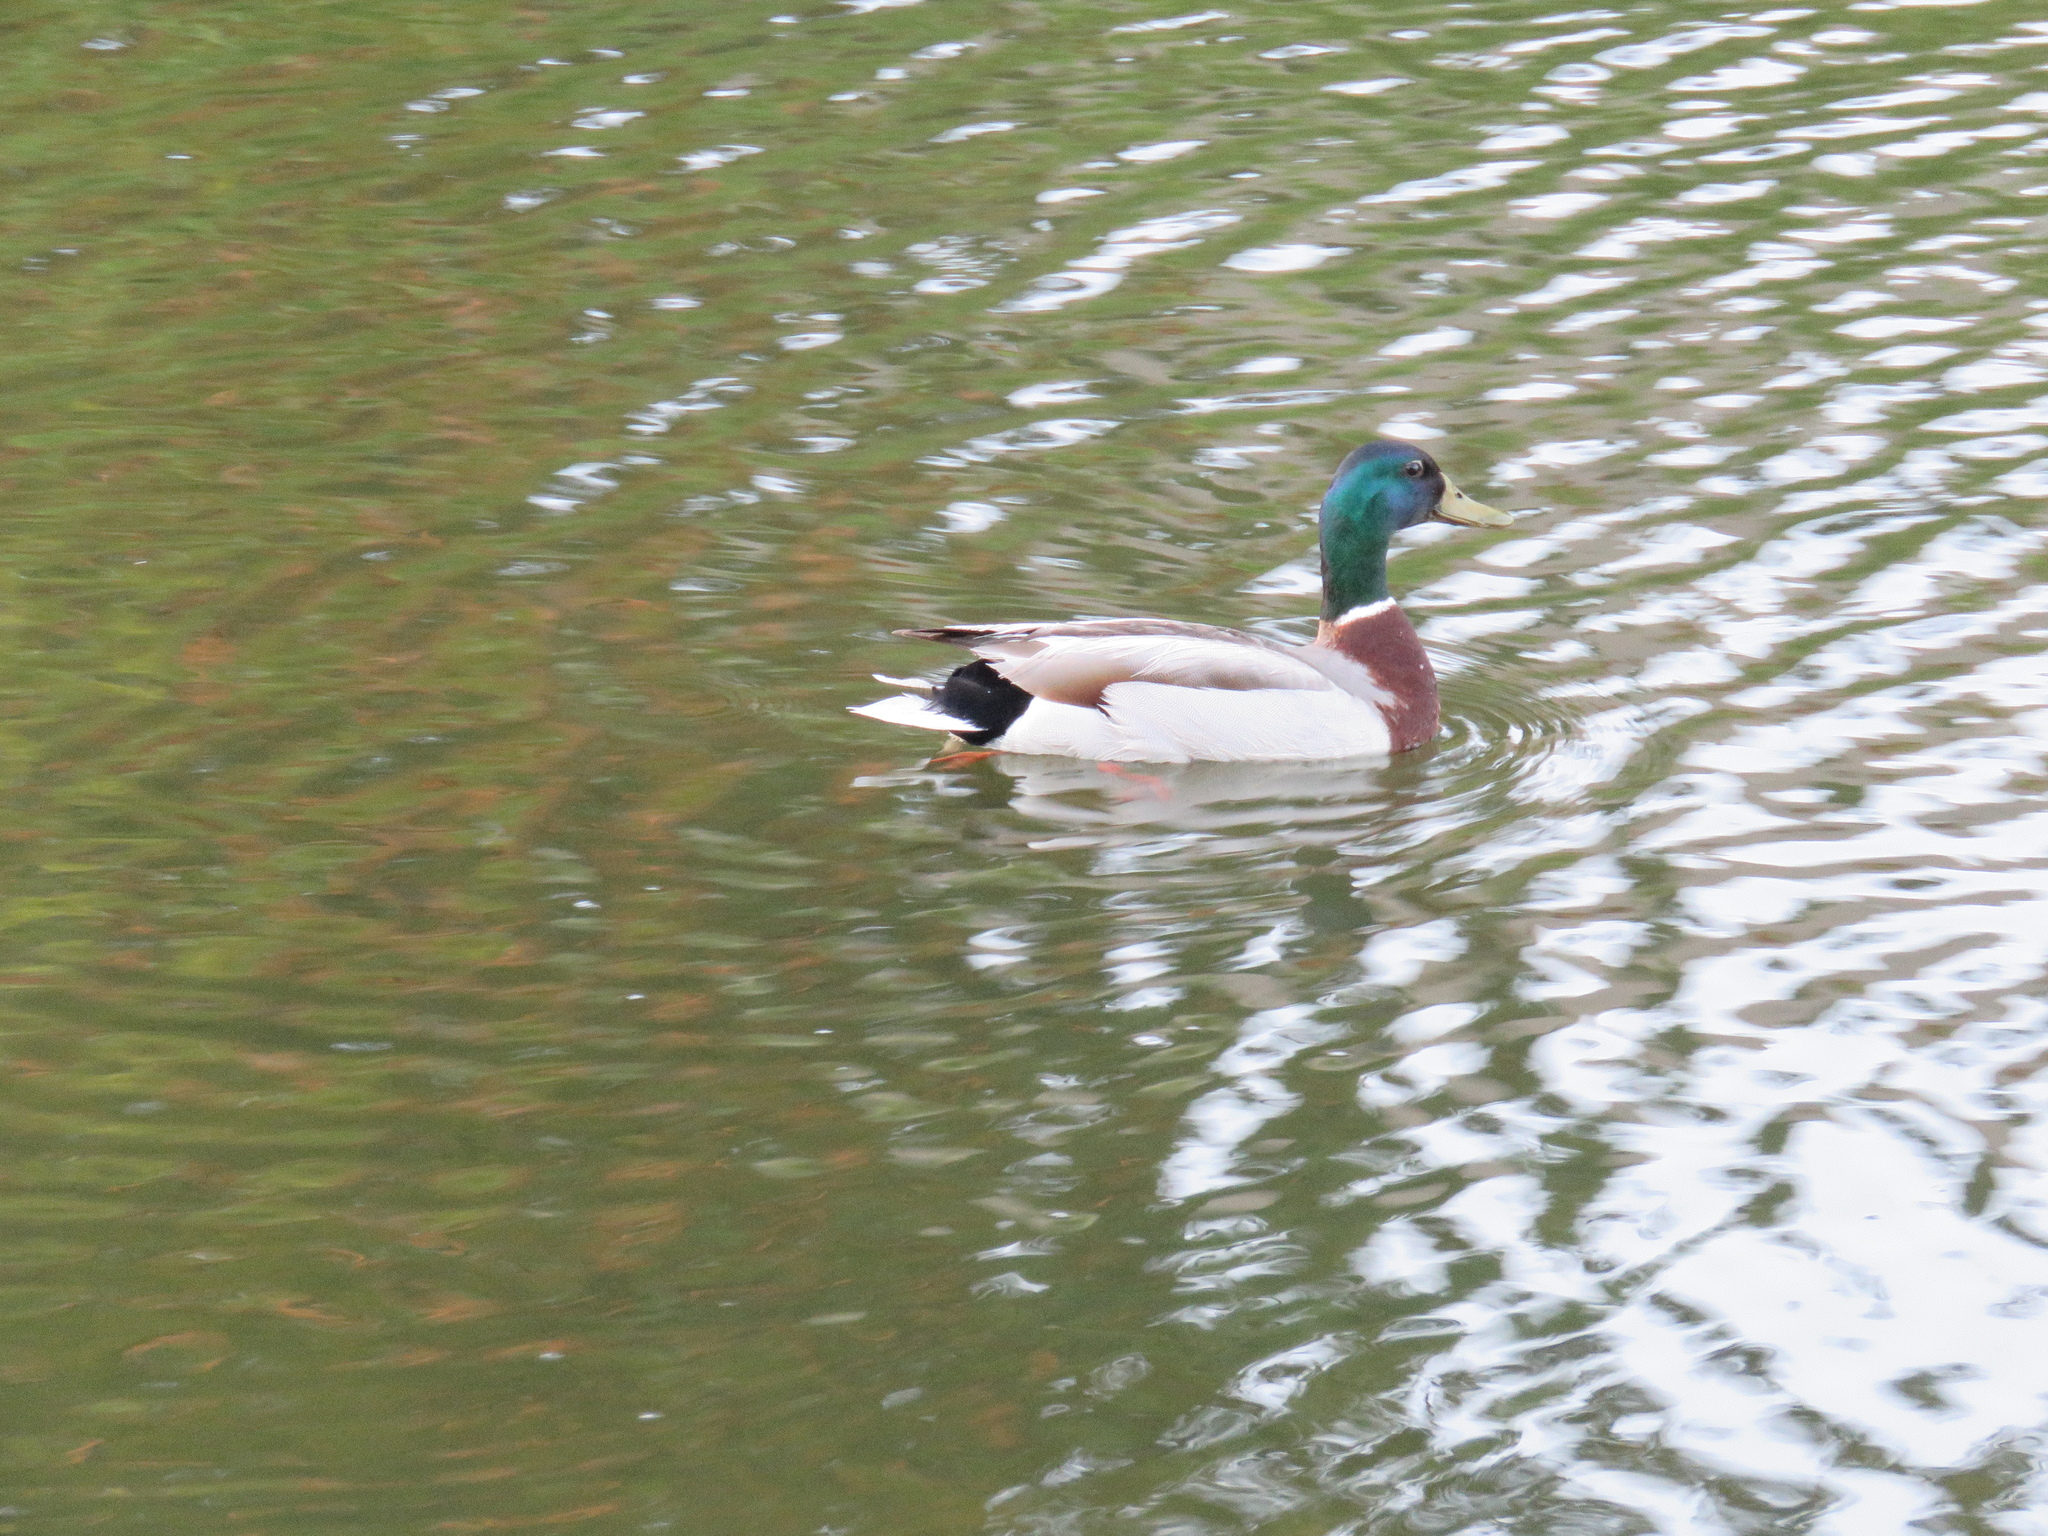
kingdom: Animalia
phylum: Chordata
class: Aves
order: Anseriformes
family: Anatidae
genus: Anas
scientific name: Anas platyrhynchos
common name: Mallard
